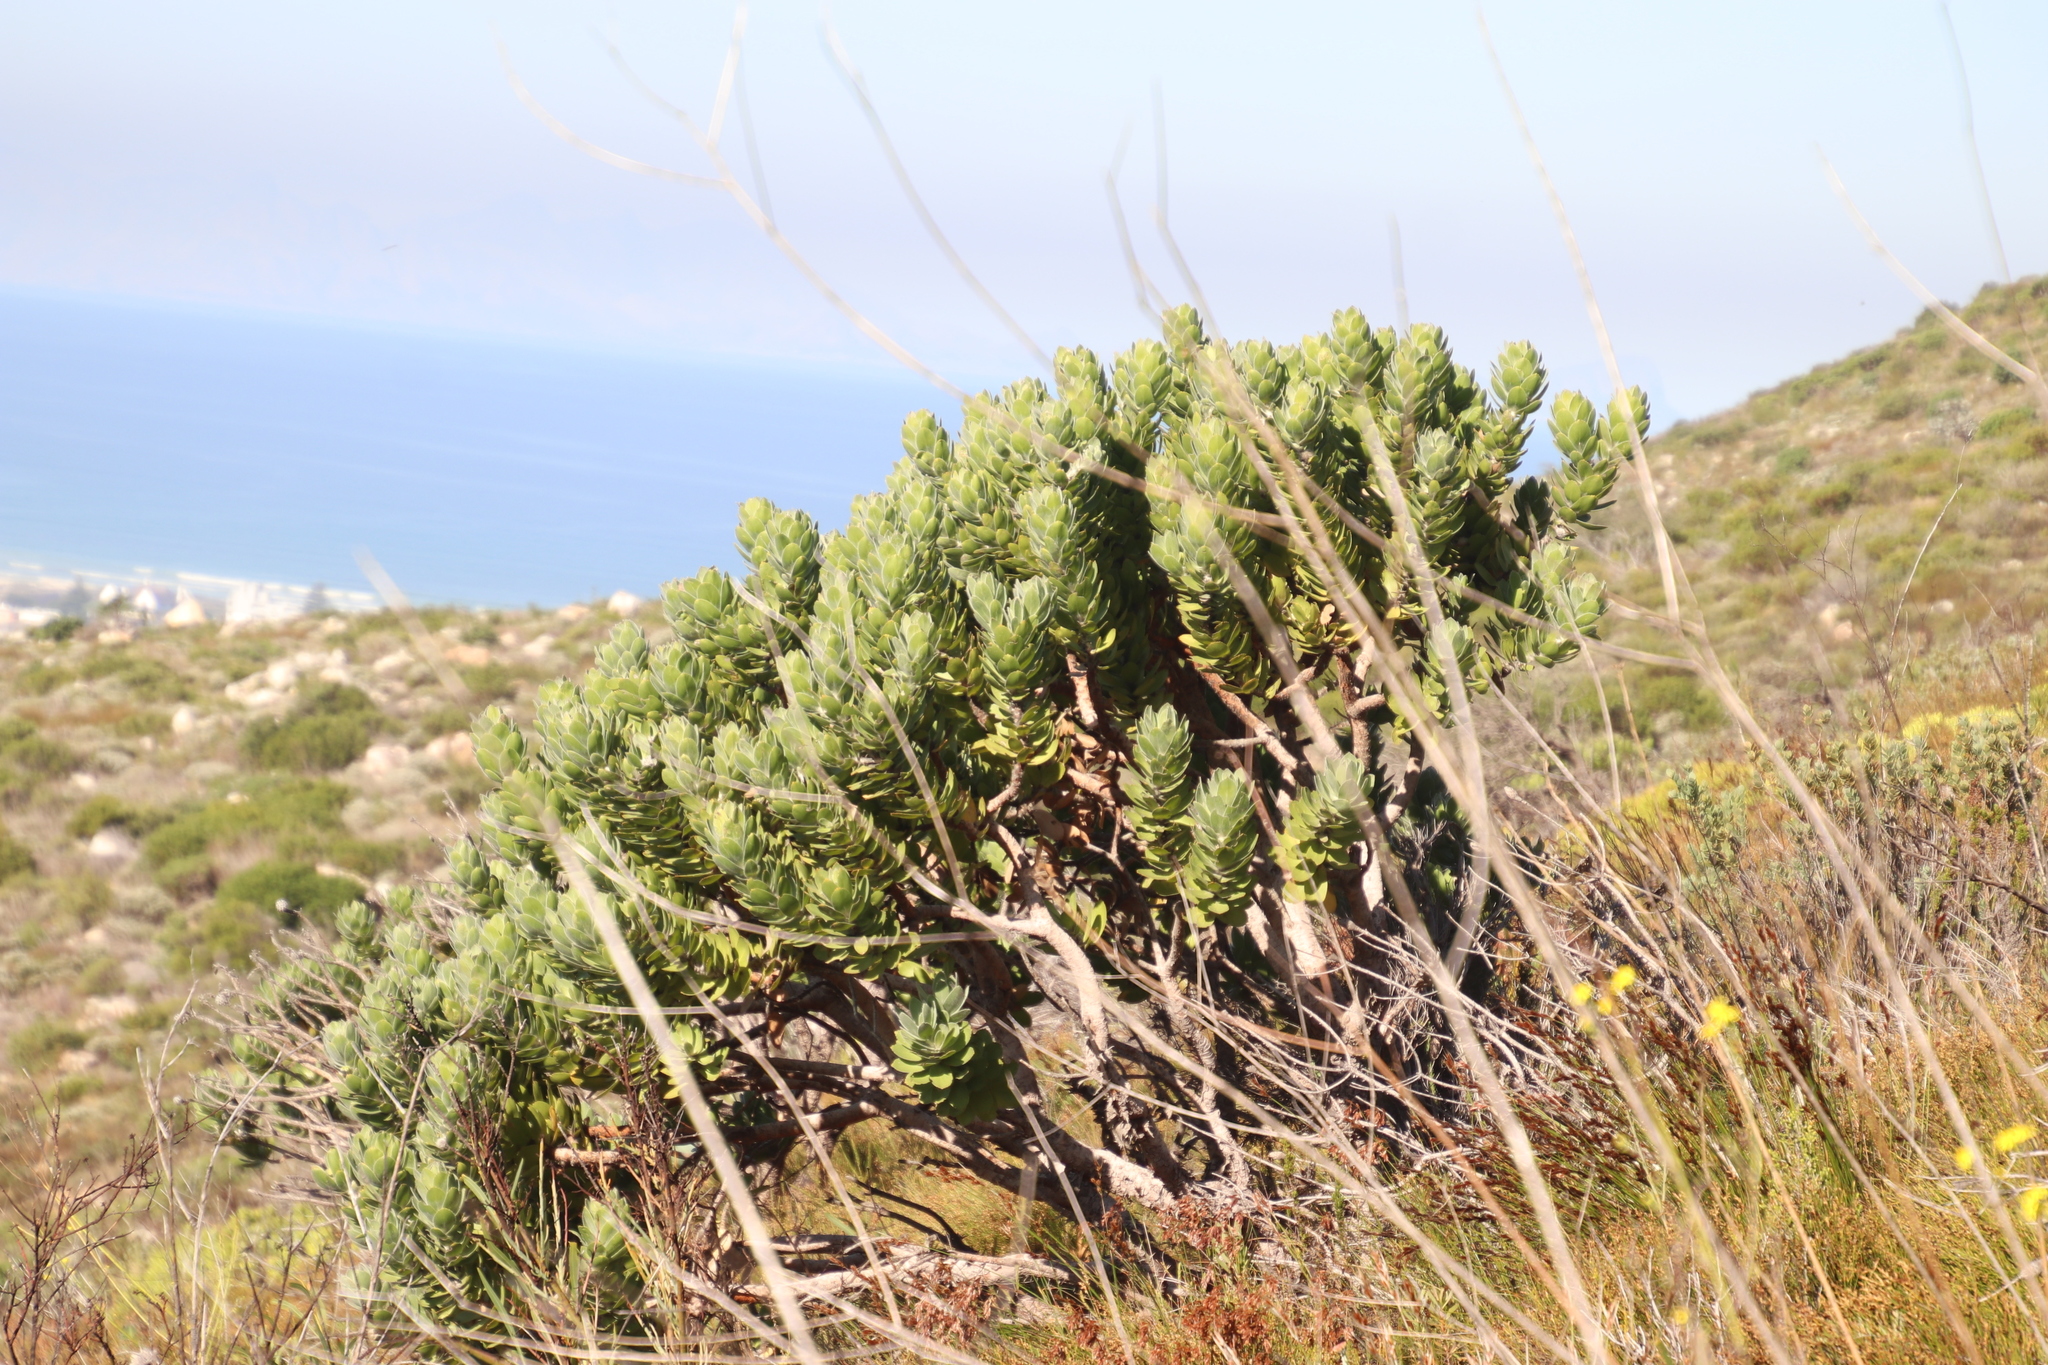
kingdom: Plantae
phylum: Tracheophyta
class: Magnoliopsida
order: Proteales
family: Proteaceae
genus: Leucospermum
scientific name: Leucospermum conocarpodendron
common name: Tree pincushion
